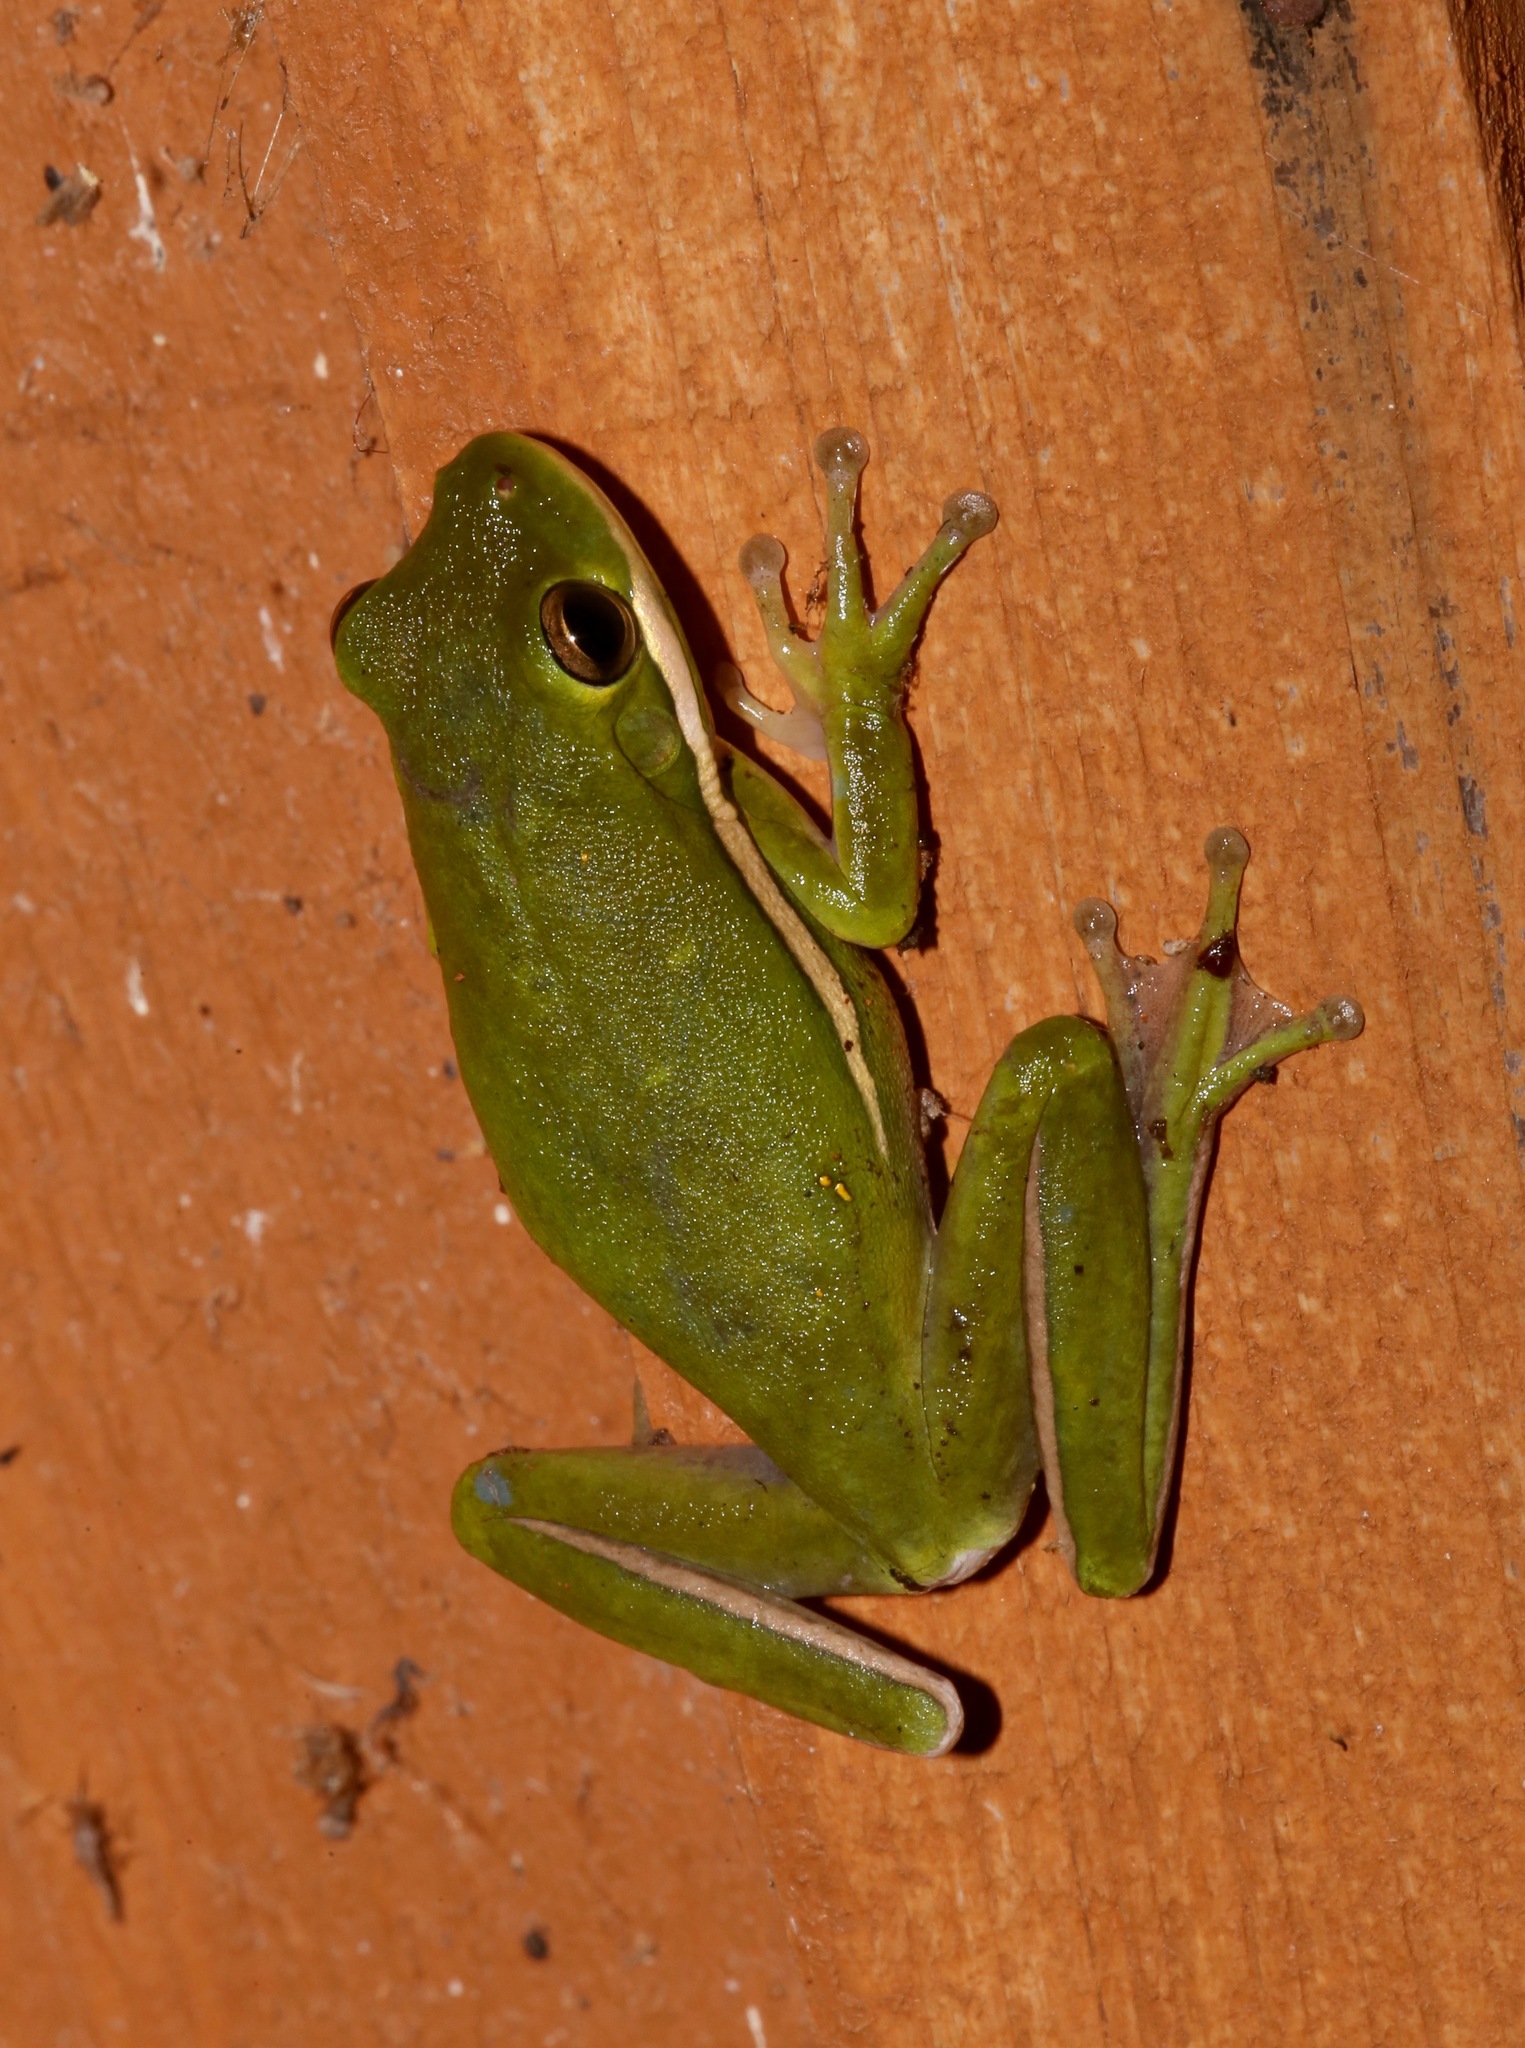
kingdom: Animalia
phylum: Chordata
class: Amphibia
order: Anura
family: Hylidae
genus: Dryophytes
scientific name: Dryophytes cinereus
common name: Green treefrog
